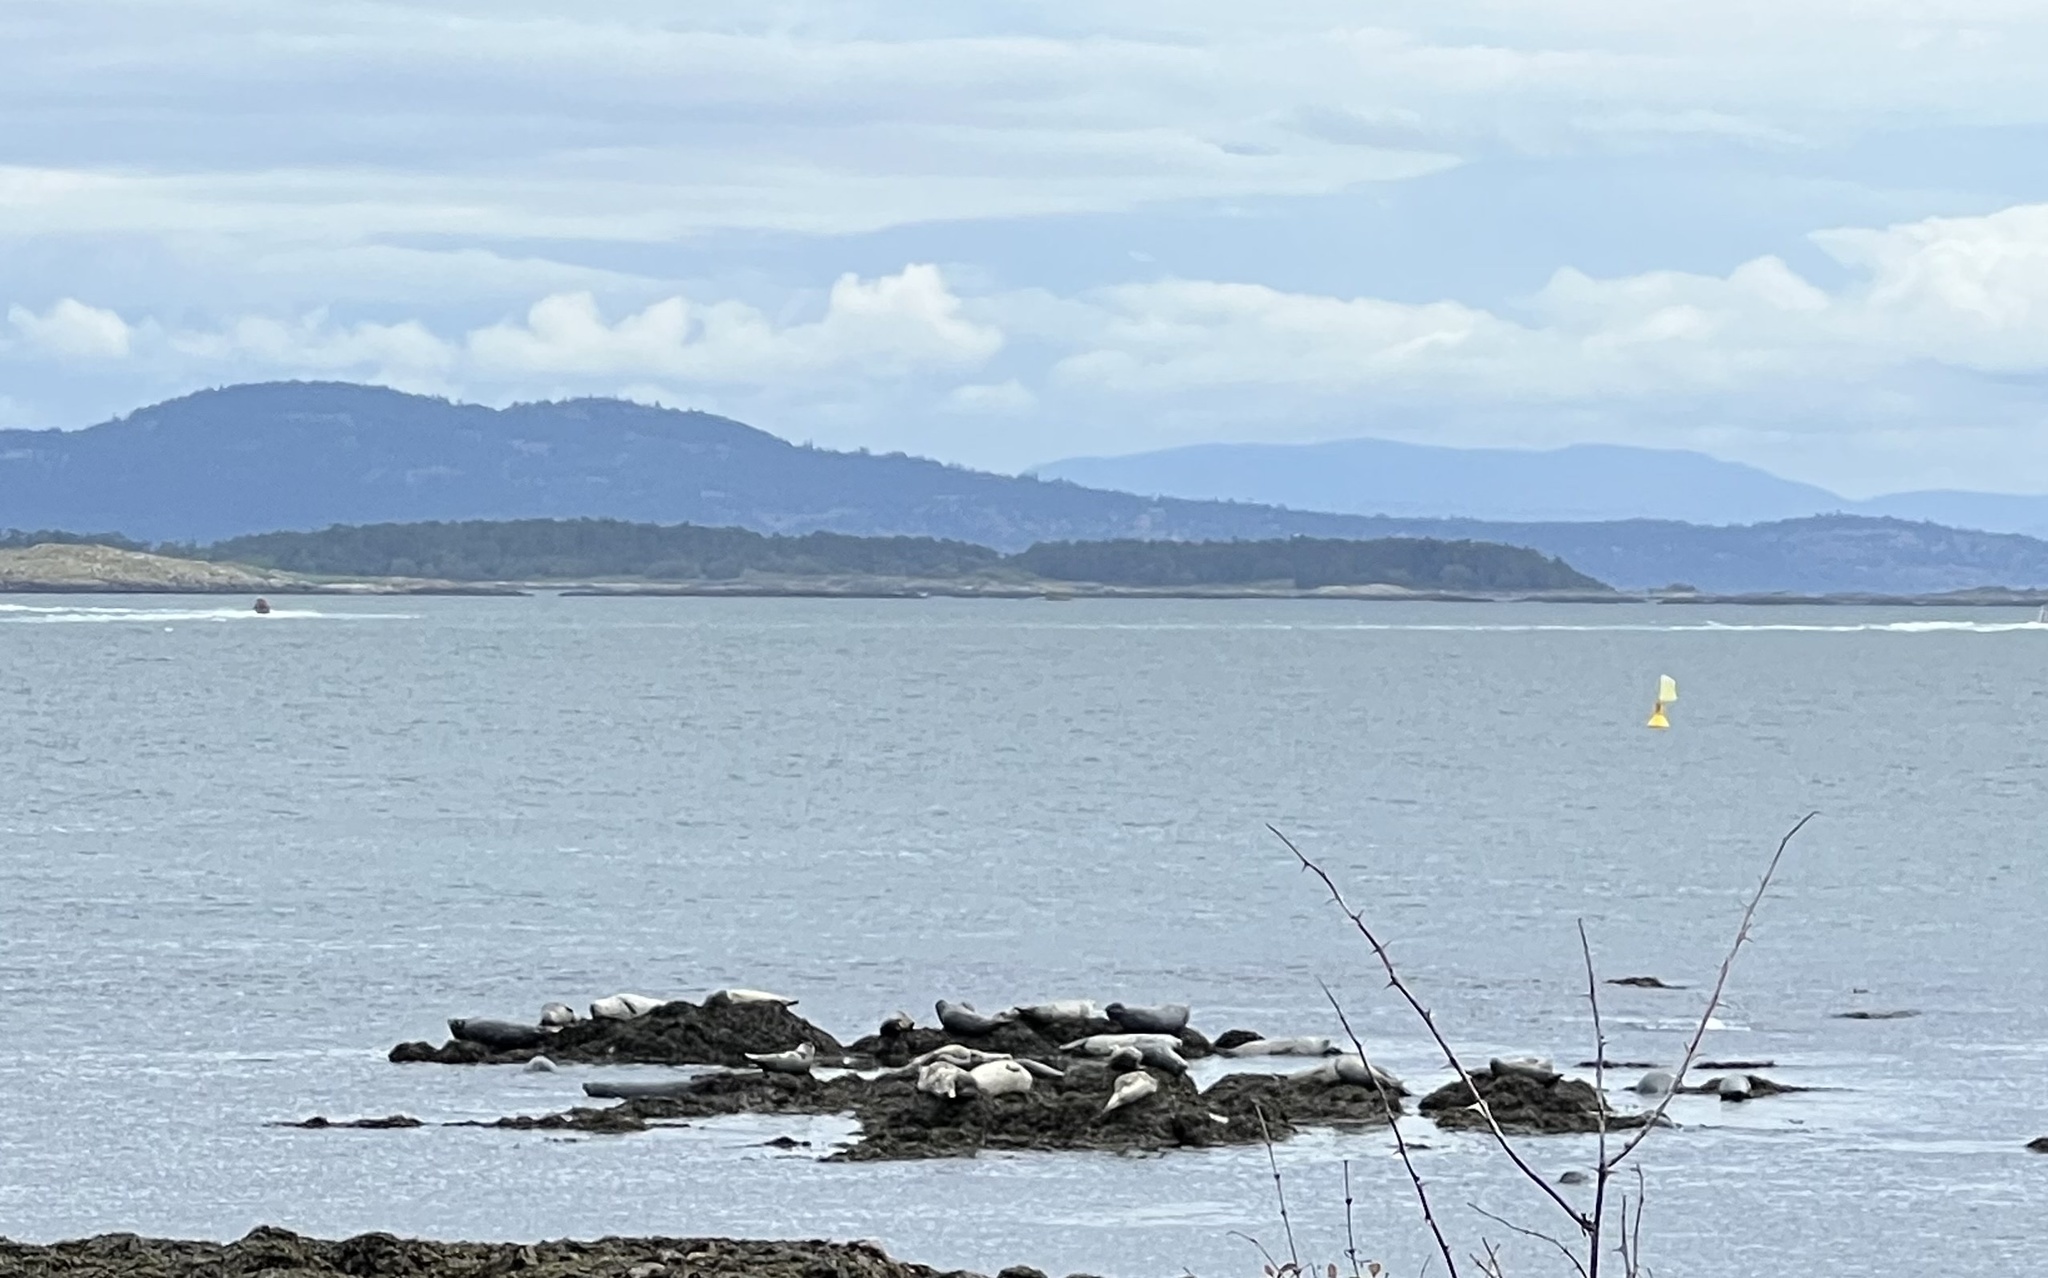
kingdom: Animalia
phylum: Chordata
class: Mammalia
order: Carnivora
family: Phocidae
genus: Phoca
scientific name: Phoca vitulina
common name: Harbor seal
